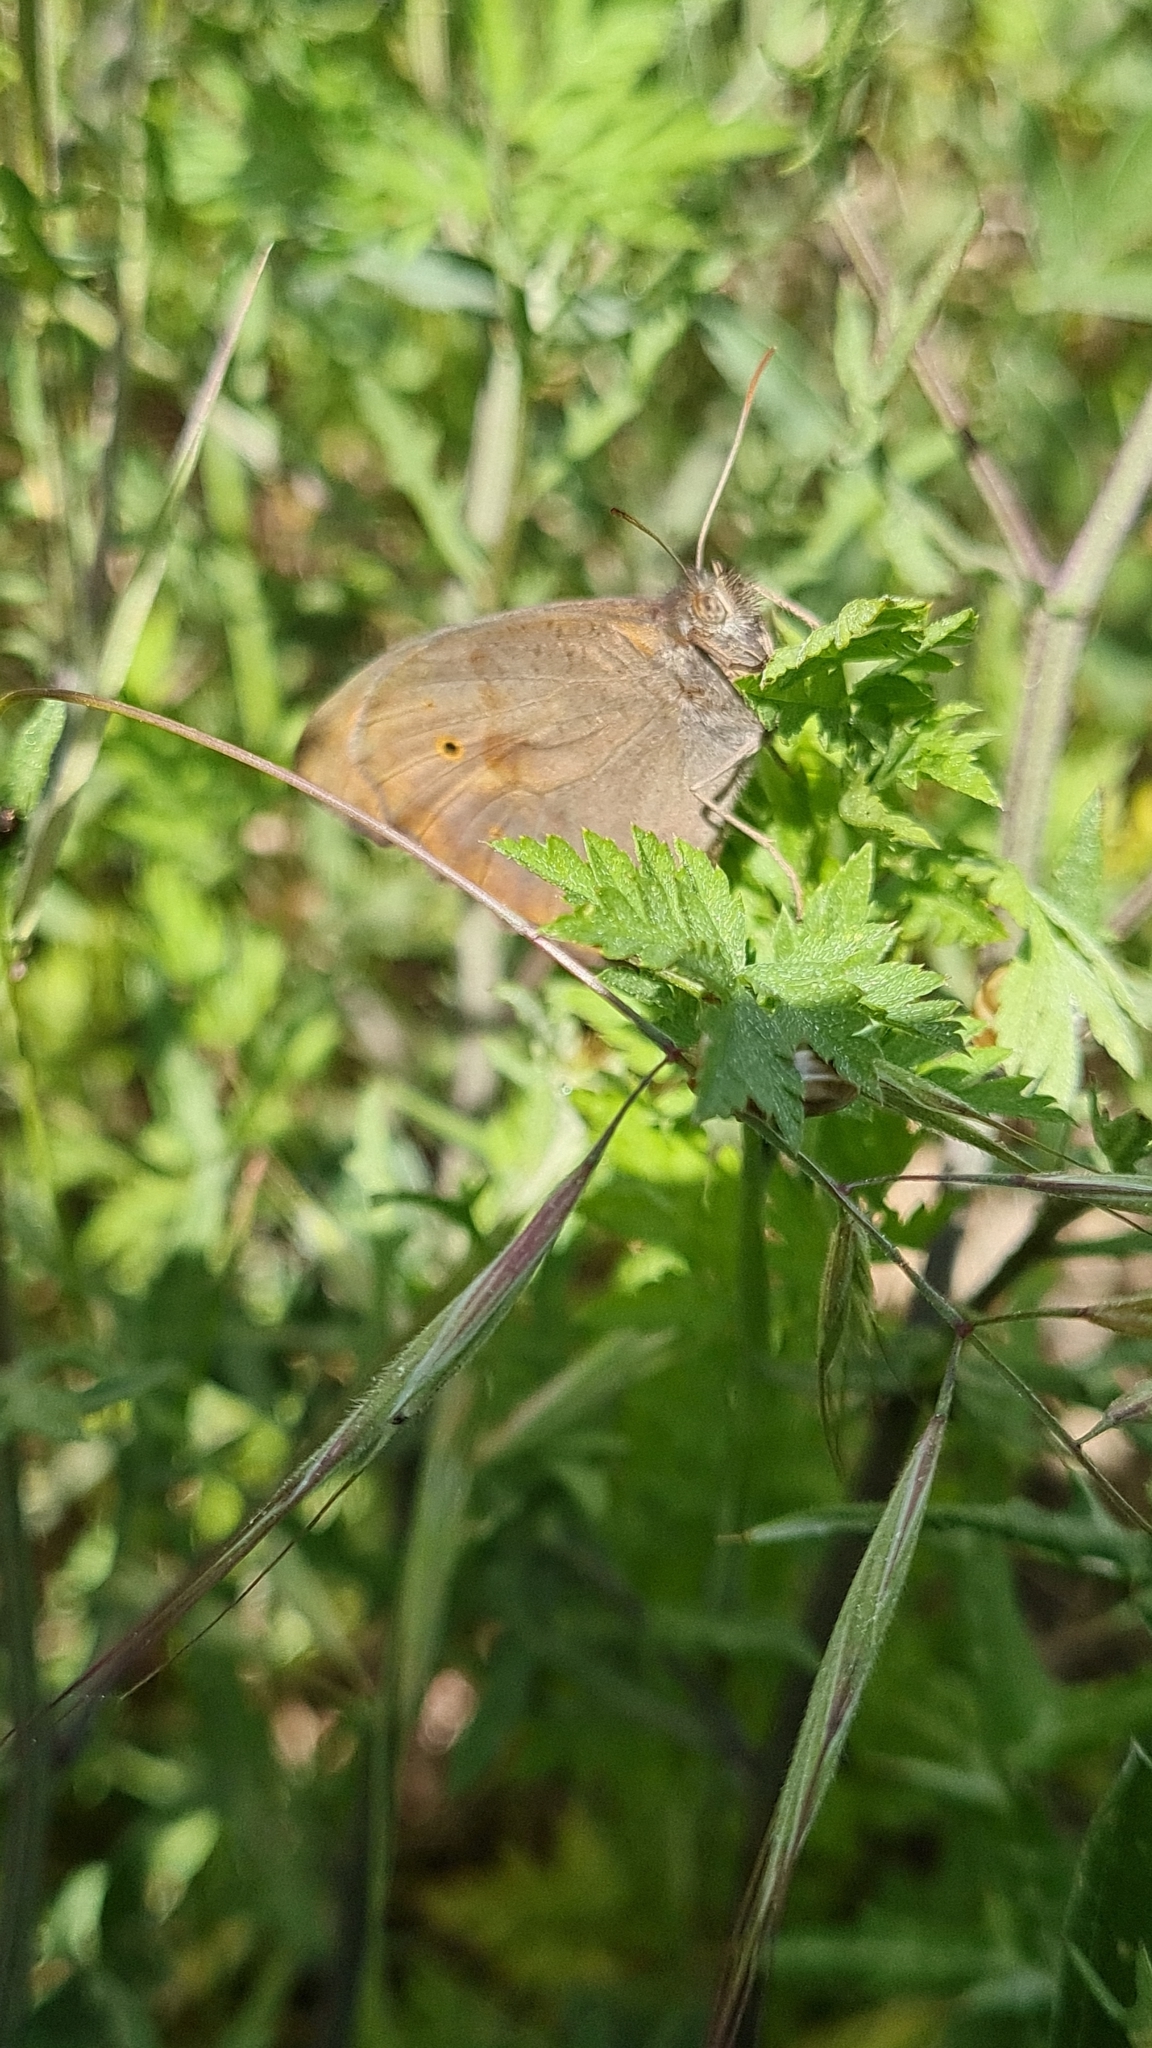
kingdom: Animalia
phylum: Arthropoda
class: Insecta
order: Lepidoptera
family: Nymphalidae
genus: Maniola
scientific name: Maniola jurtina
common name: Meadow brown
